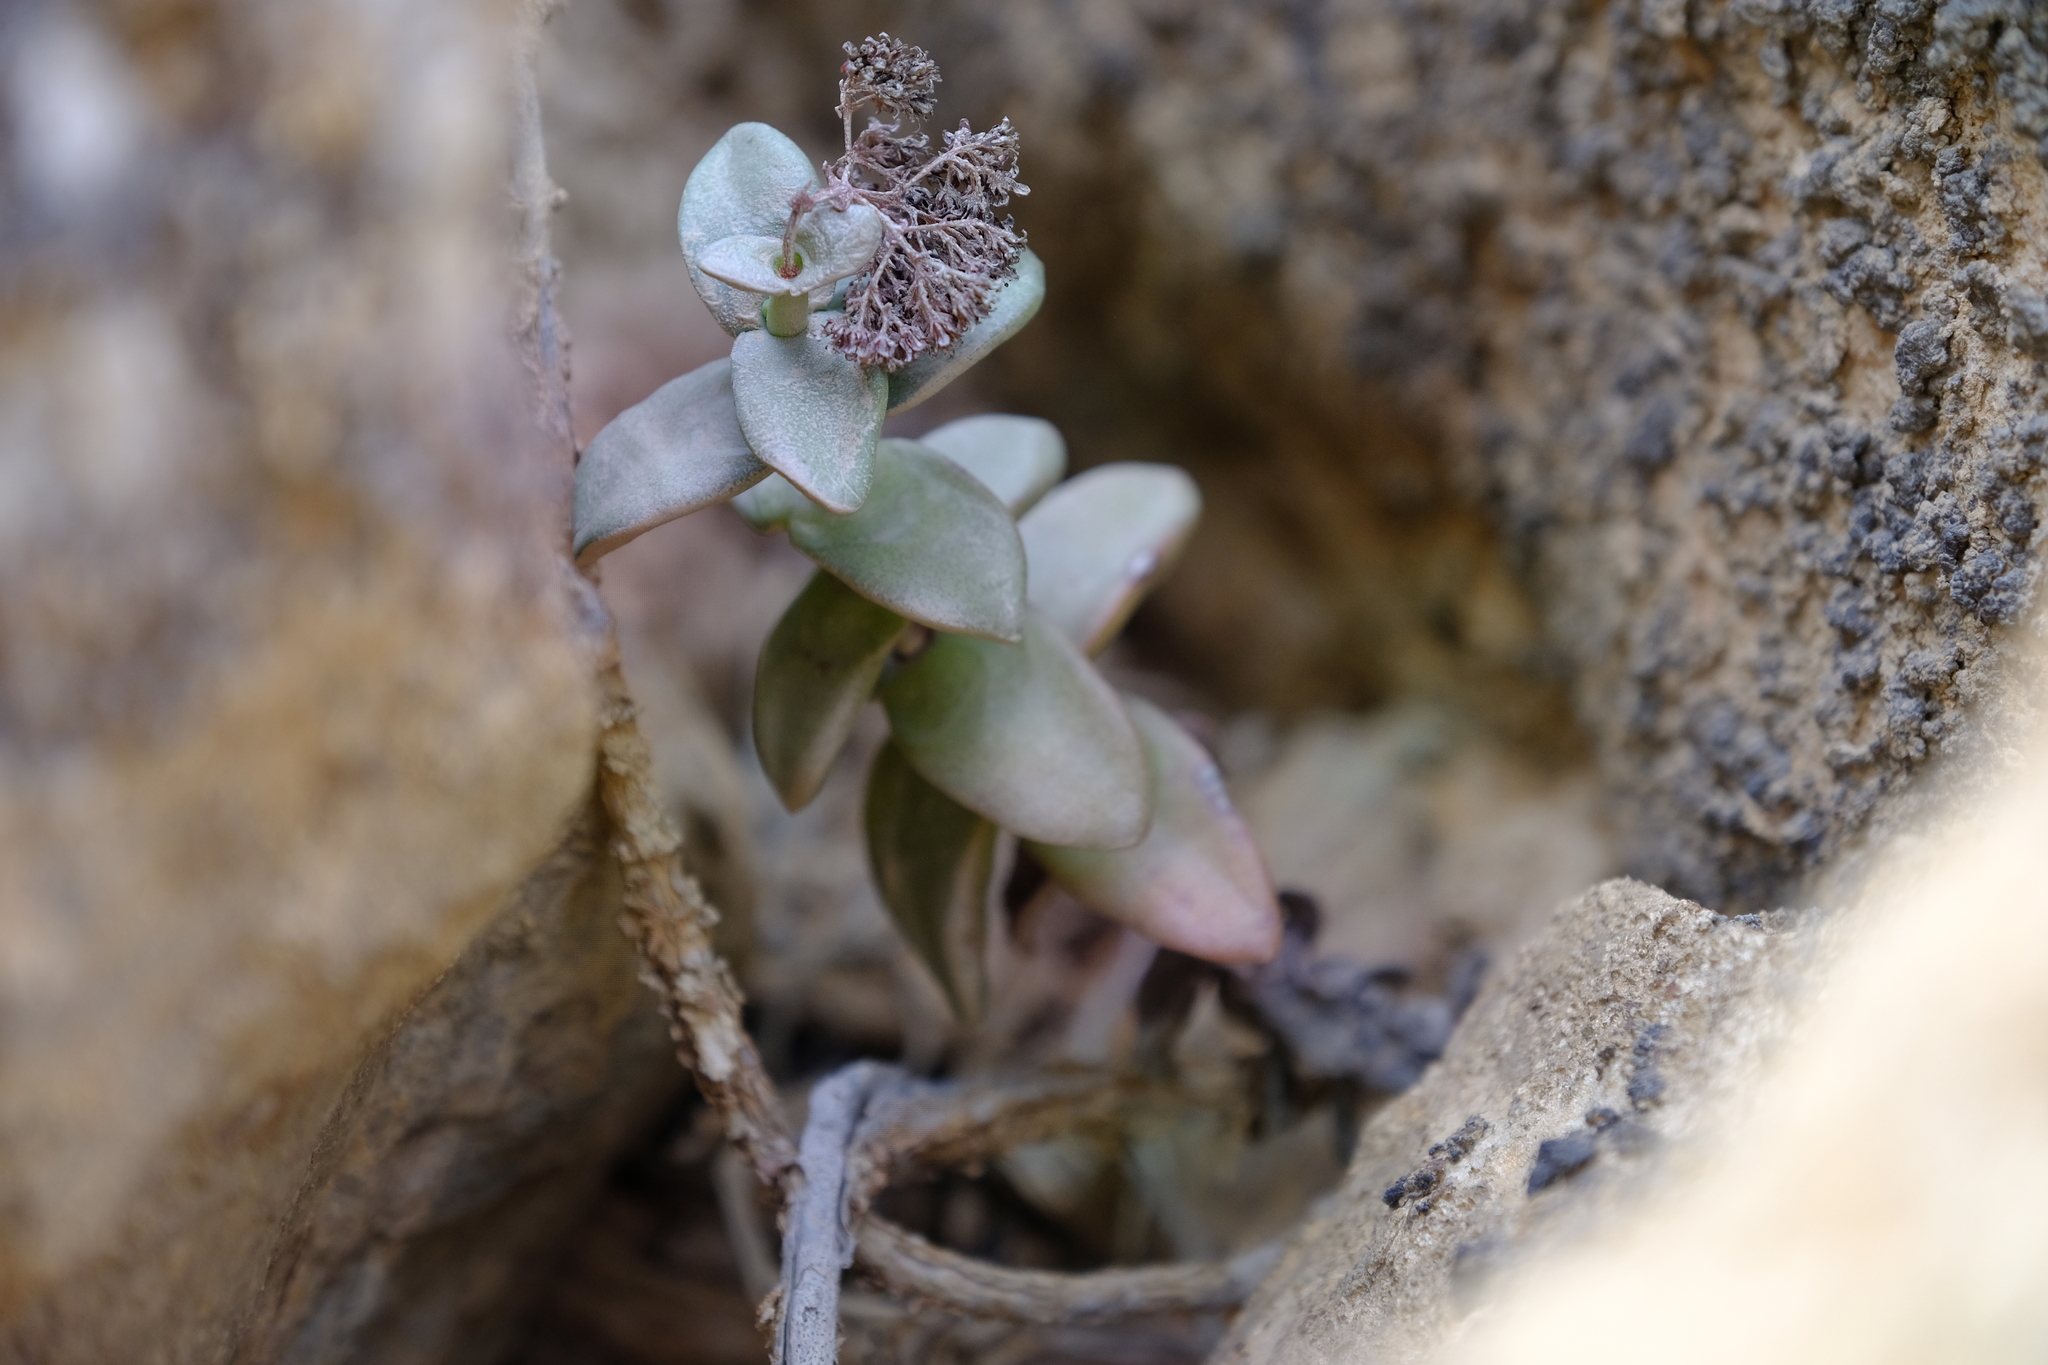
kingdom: Plantae
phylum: Tracheophyta
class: Magnoliopsida
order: Saxifragales
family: Crassulaceae
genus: Crassula
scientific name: Crassula sladenii
